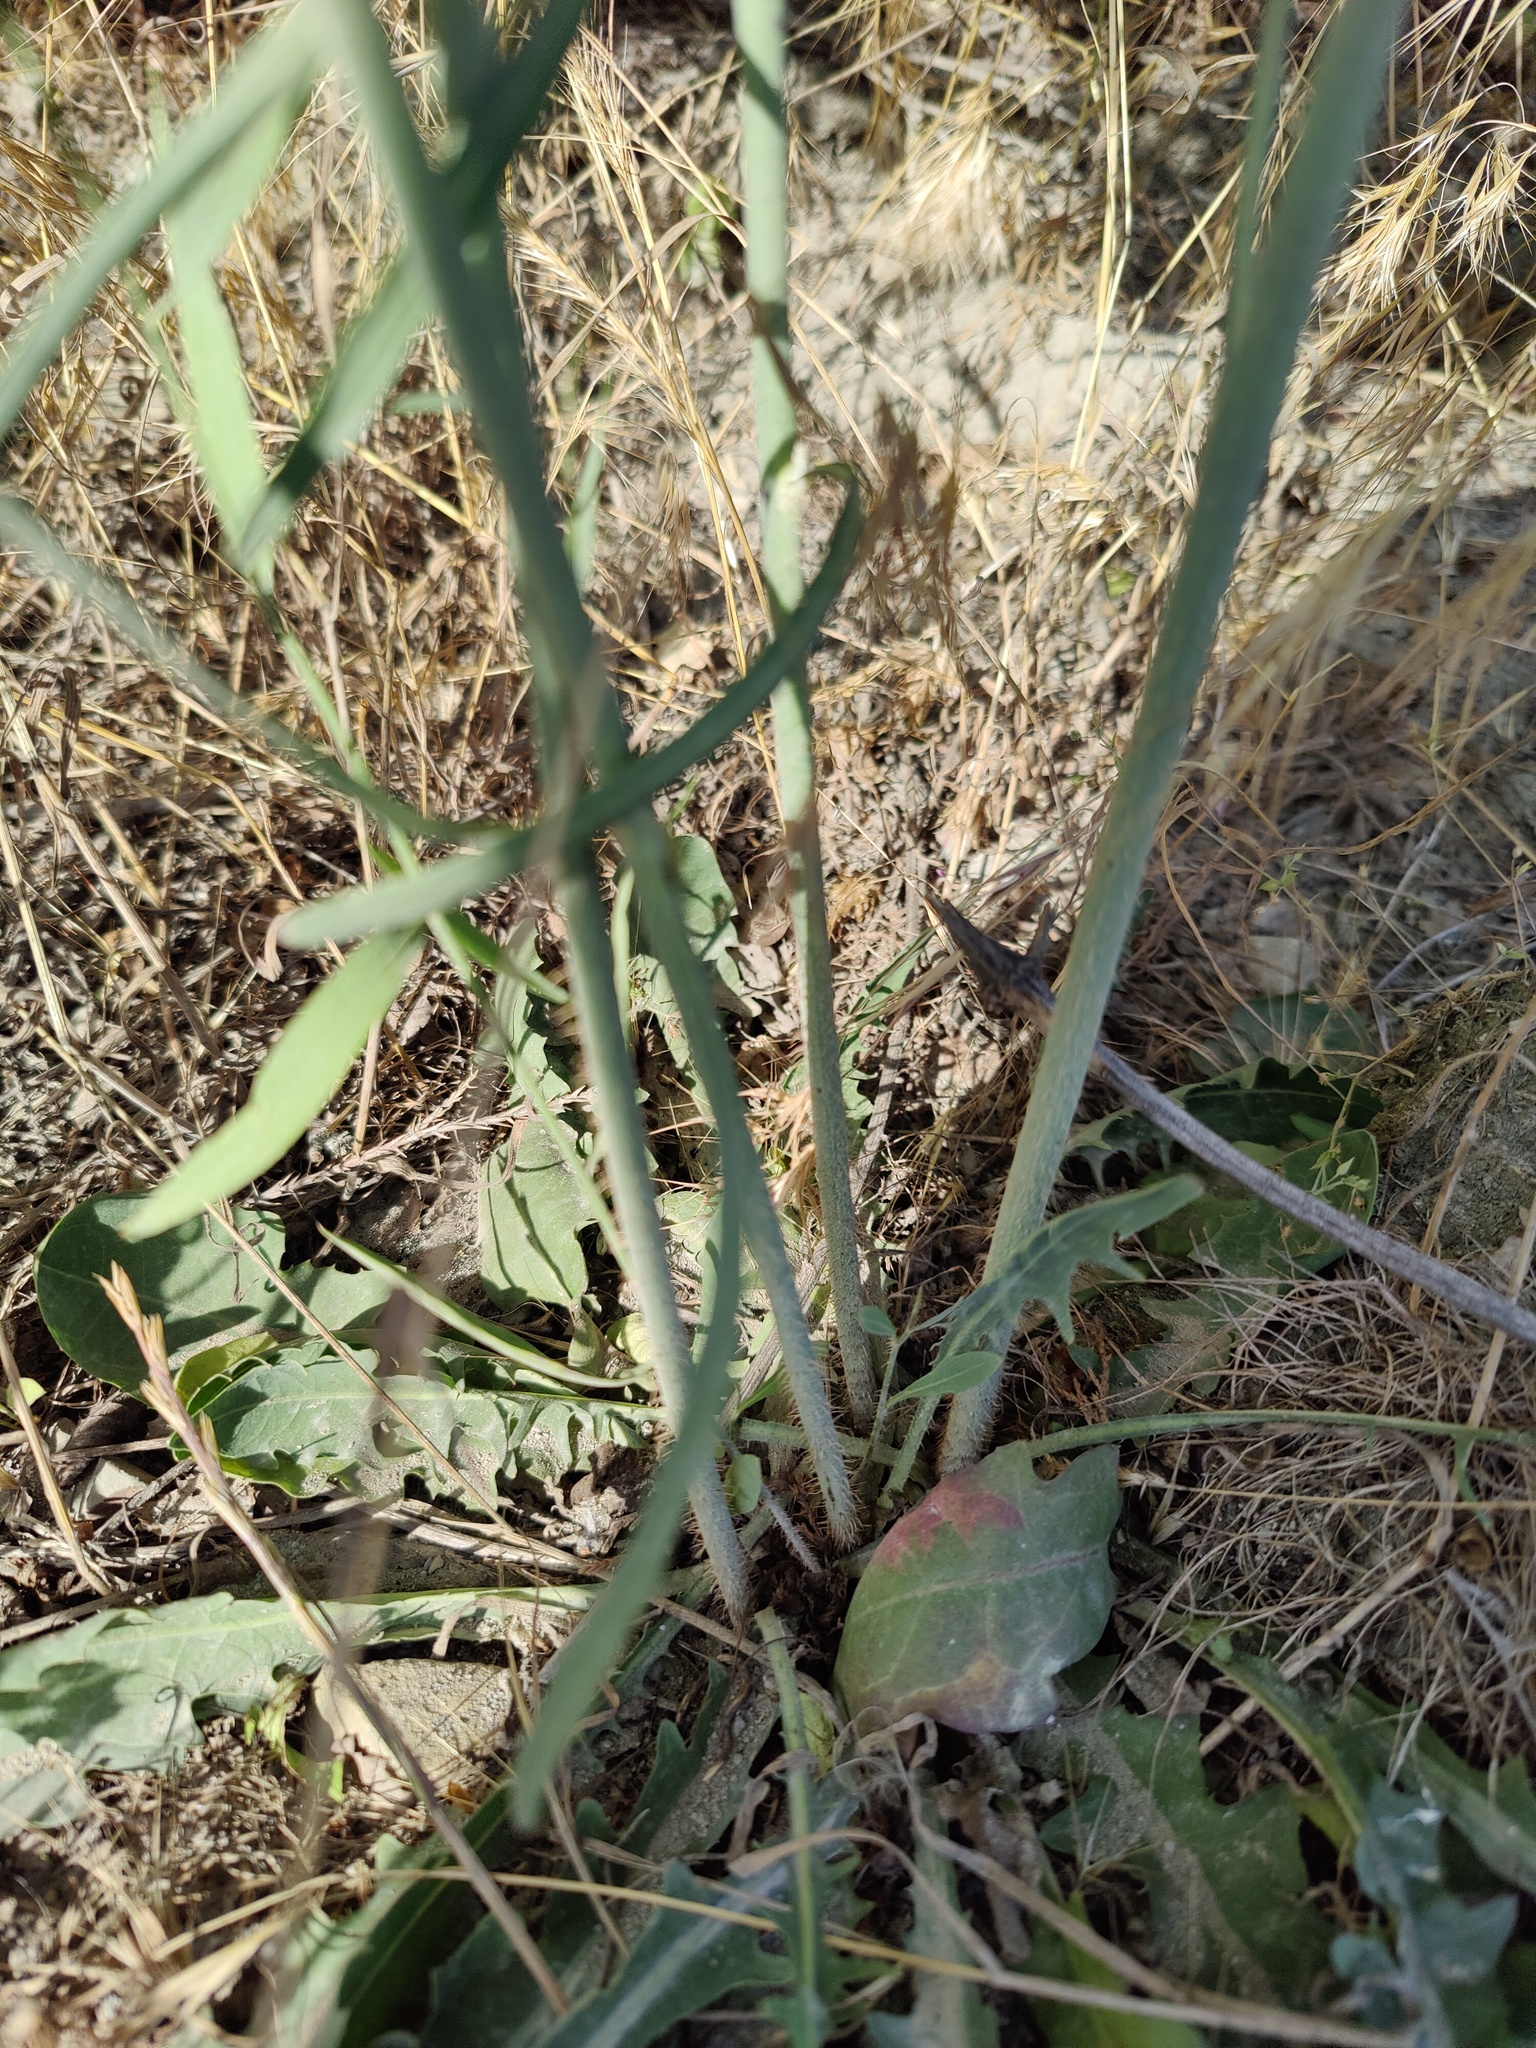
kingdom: Plantae
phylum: Tracheophyta
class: Magnoliopsida
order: Asterales
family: Asteraceae
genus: Chondrilla
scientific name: Chondrilla juncea
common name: Skeleton weed
